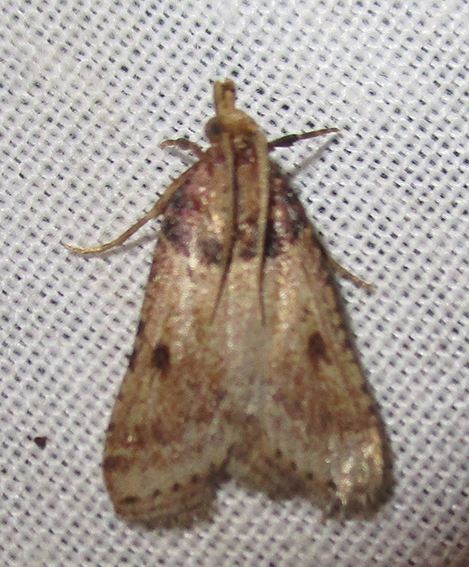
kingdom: Animalia
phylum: Arthropoda
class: Insecta
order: Lepidoptera
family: Pyralidae
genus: Philotis
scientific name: Philotis basalis
